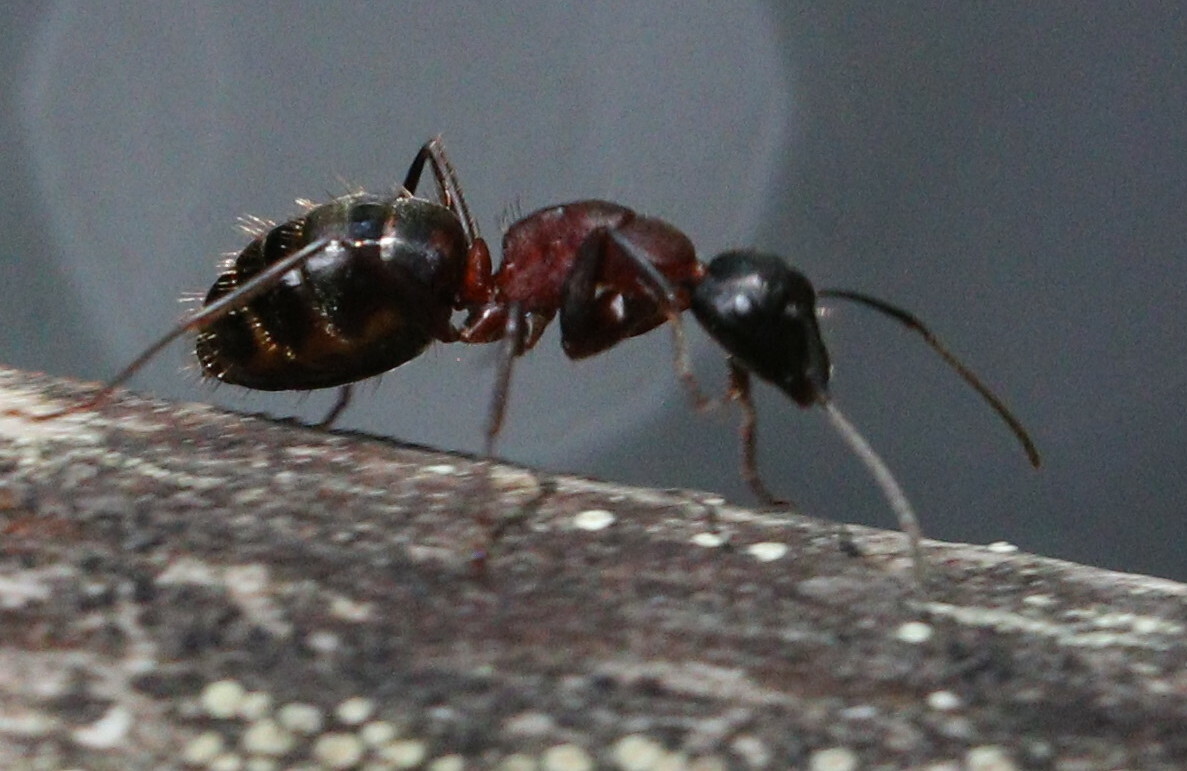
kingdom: Animalia
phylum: Arthropoda
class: Insecta
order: Hymenoptera
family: Formicidae
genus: Camponotus
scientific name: Camponotus herculeanus
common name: Hercules ant
